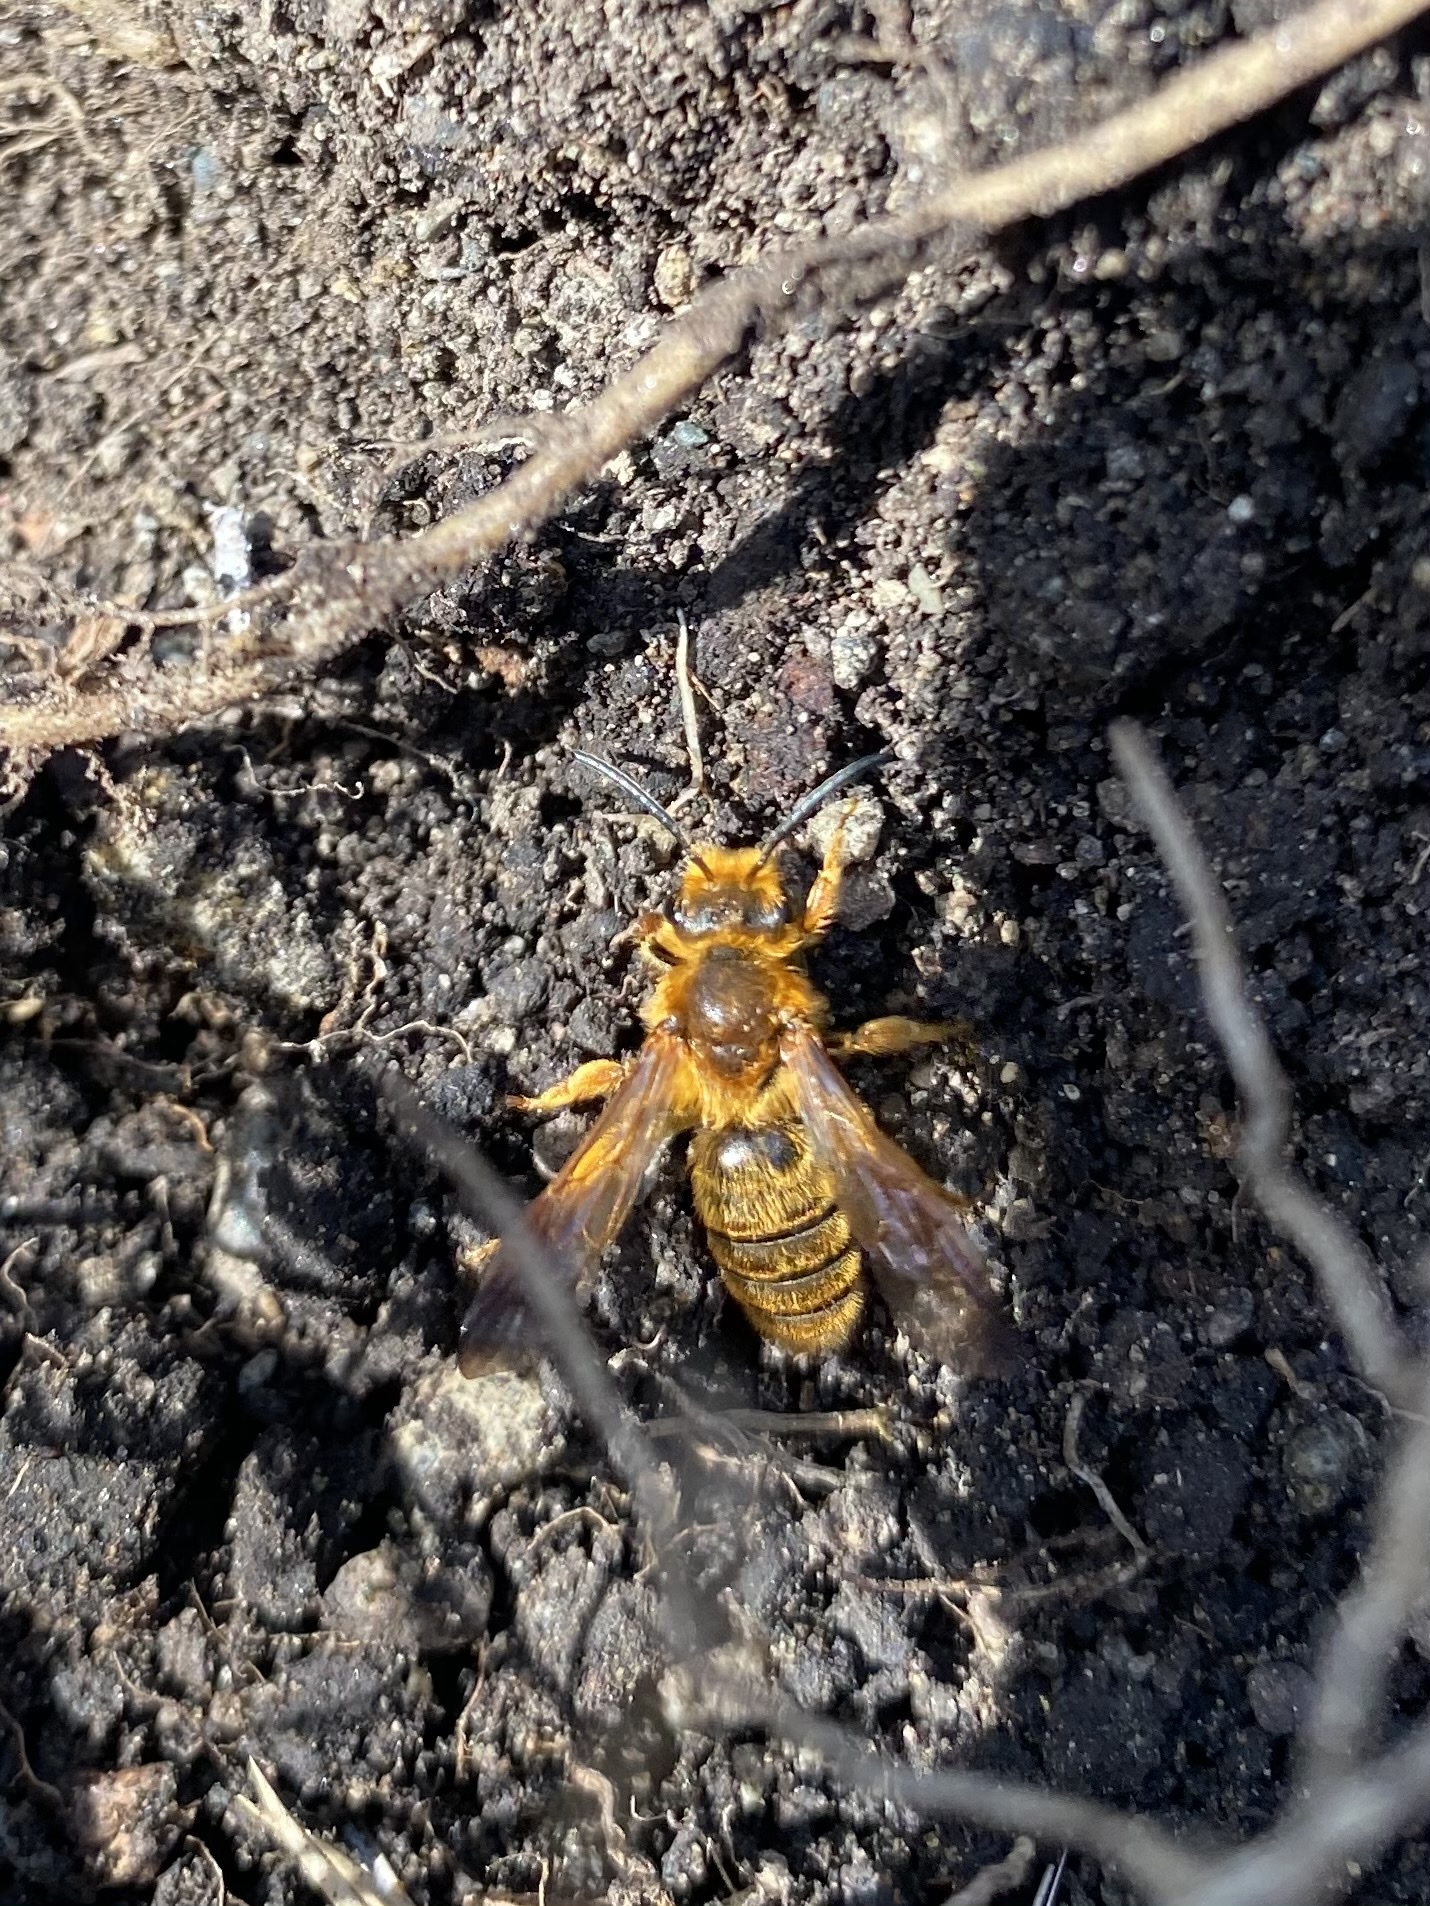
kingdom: Animalia
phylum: Arthropoda
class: Insecta
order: Hymenoptera
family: Andrenidae
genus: Andrena
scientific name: Andrena prunorum
